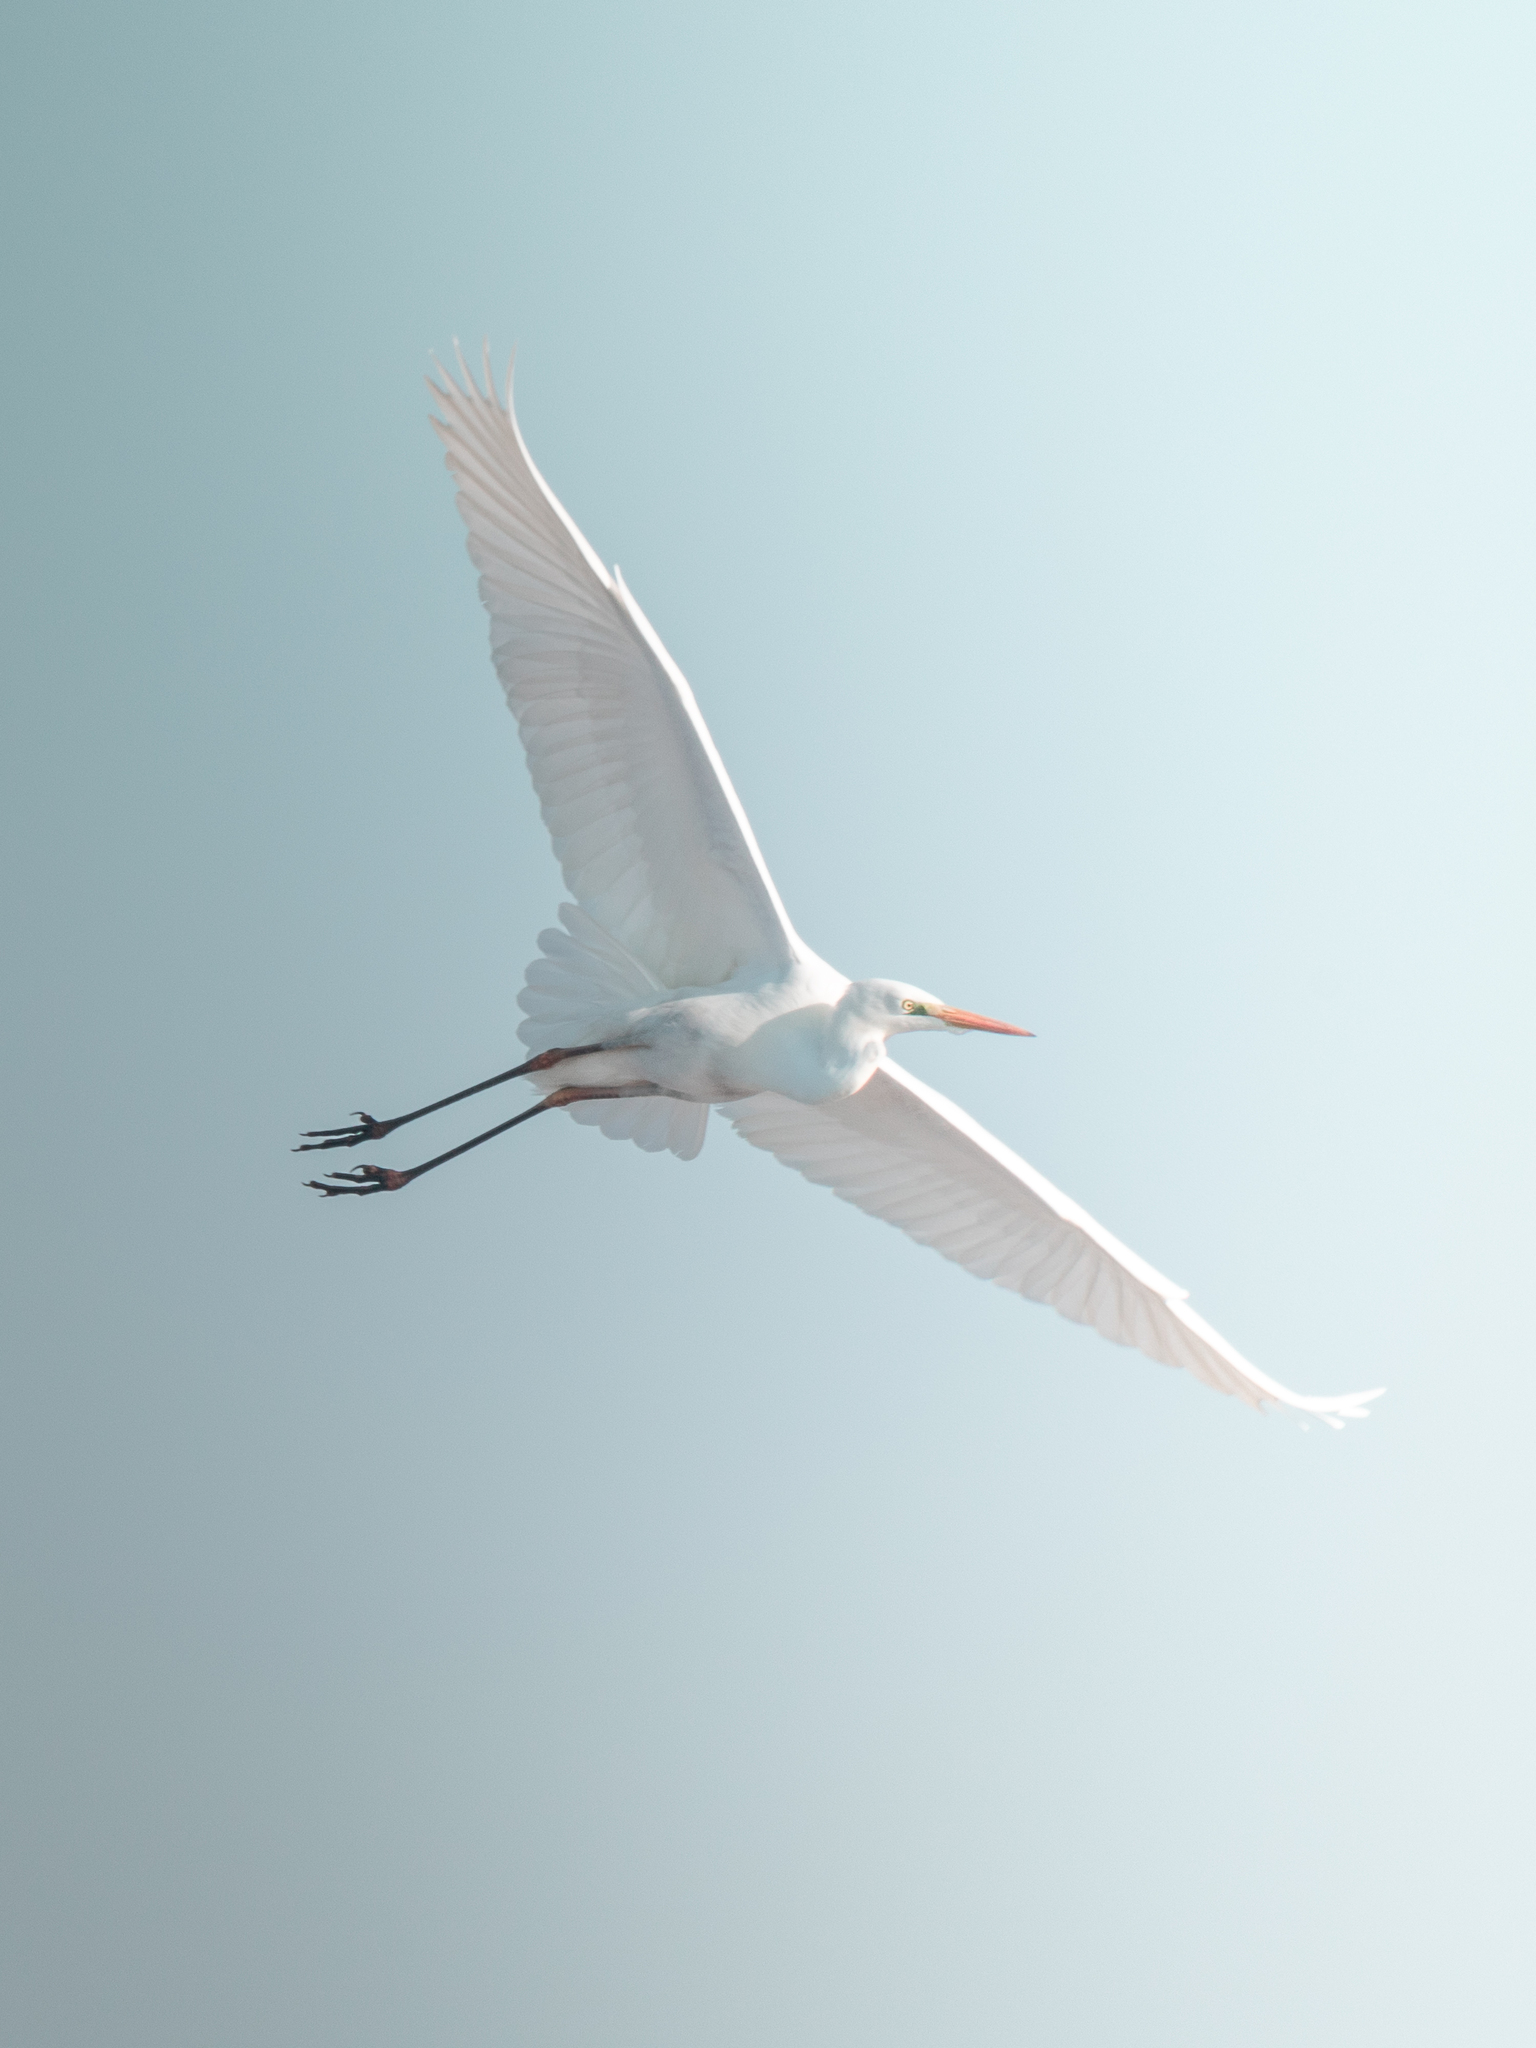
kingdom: Animalia
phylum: Chordata
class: Aves
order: Pelecaniformes
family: Ardeidae
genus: Ardea
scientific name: Ardea alba
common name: Great egret
